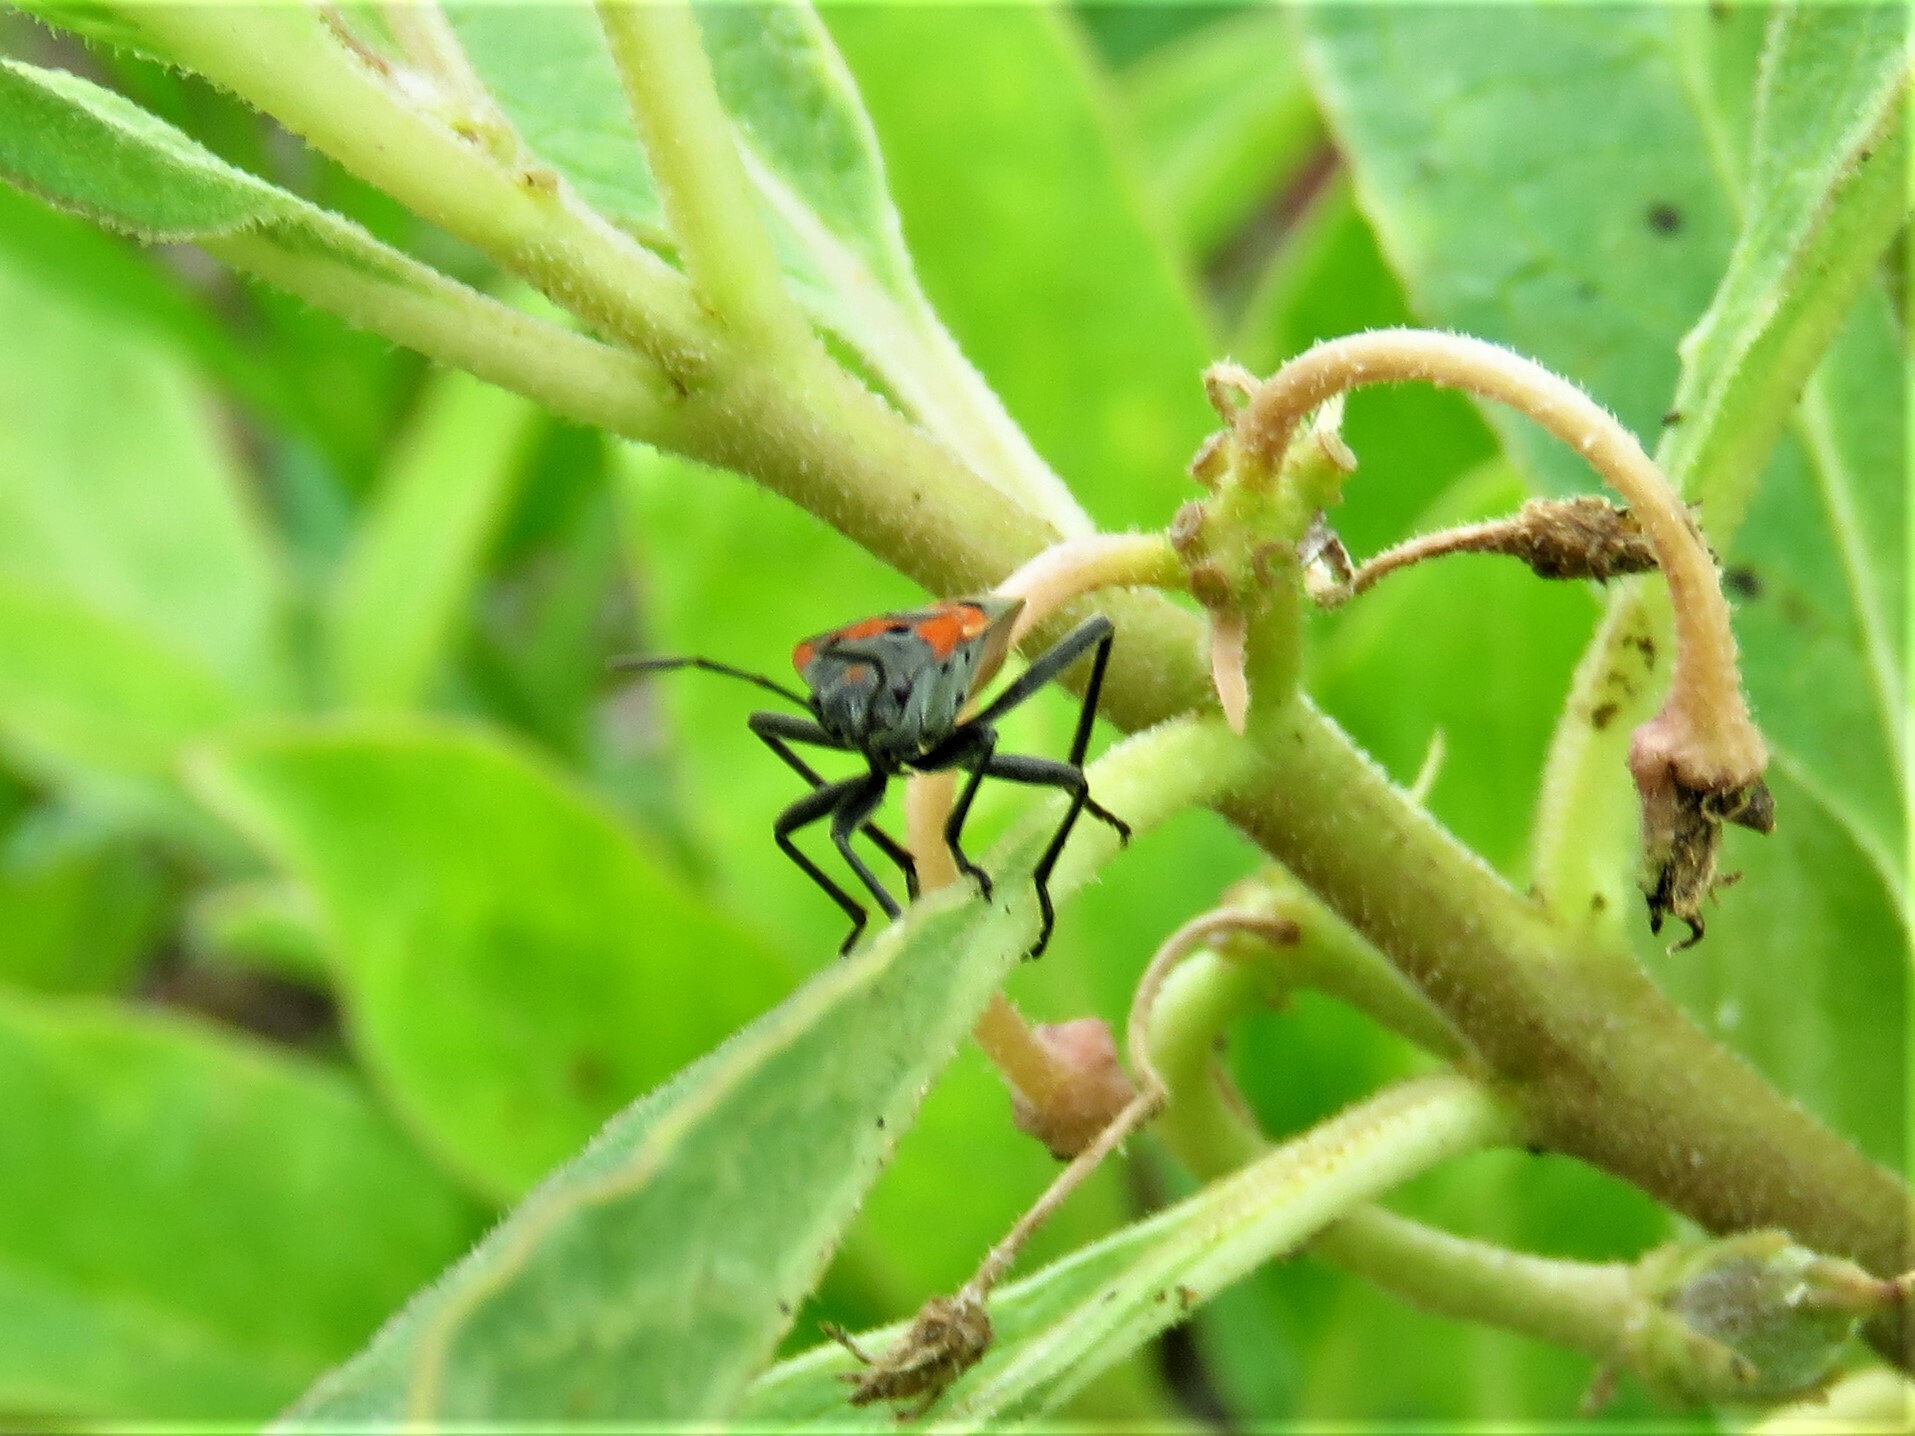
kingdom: Animalia
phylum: Arthropoda
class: Insecta
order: Hemiptera
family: Lygaeidae
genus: Lygaeus
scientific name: Lygaeus kalmii
